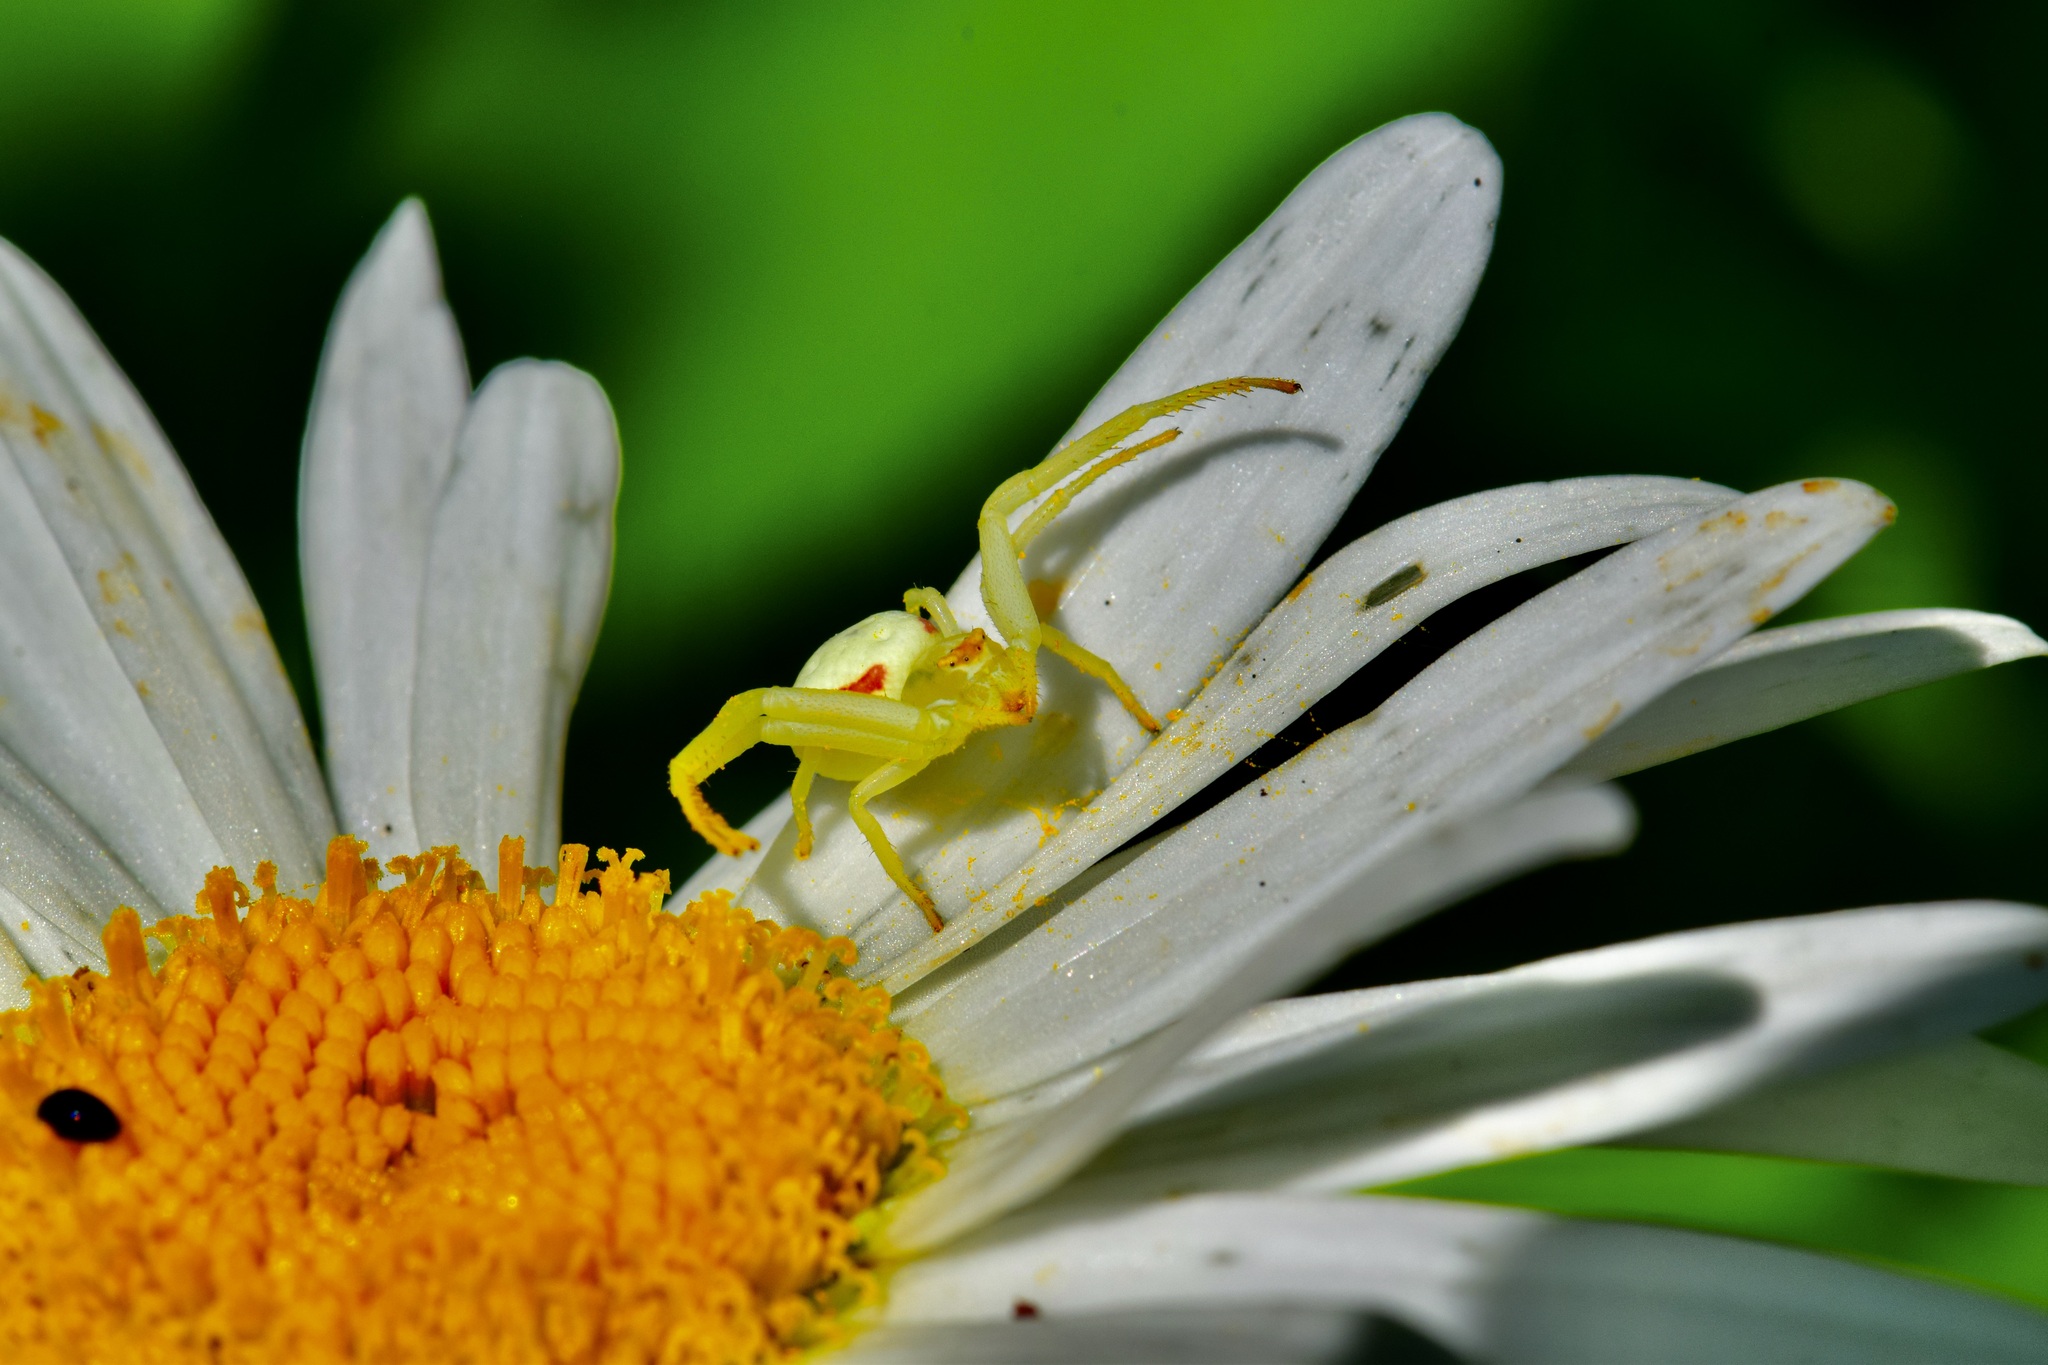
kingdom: Animalia
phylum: Arthropoda
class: Arachnida
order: Araneae
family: Thomisidae
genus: Misumena
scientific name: Misumena vatia
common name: Goldenrod crab spider
